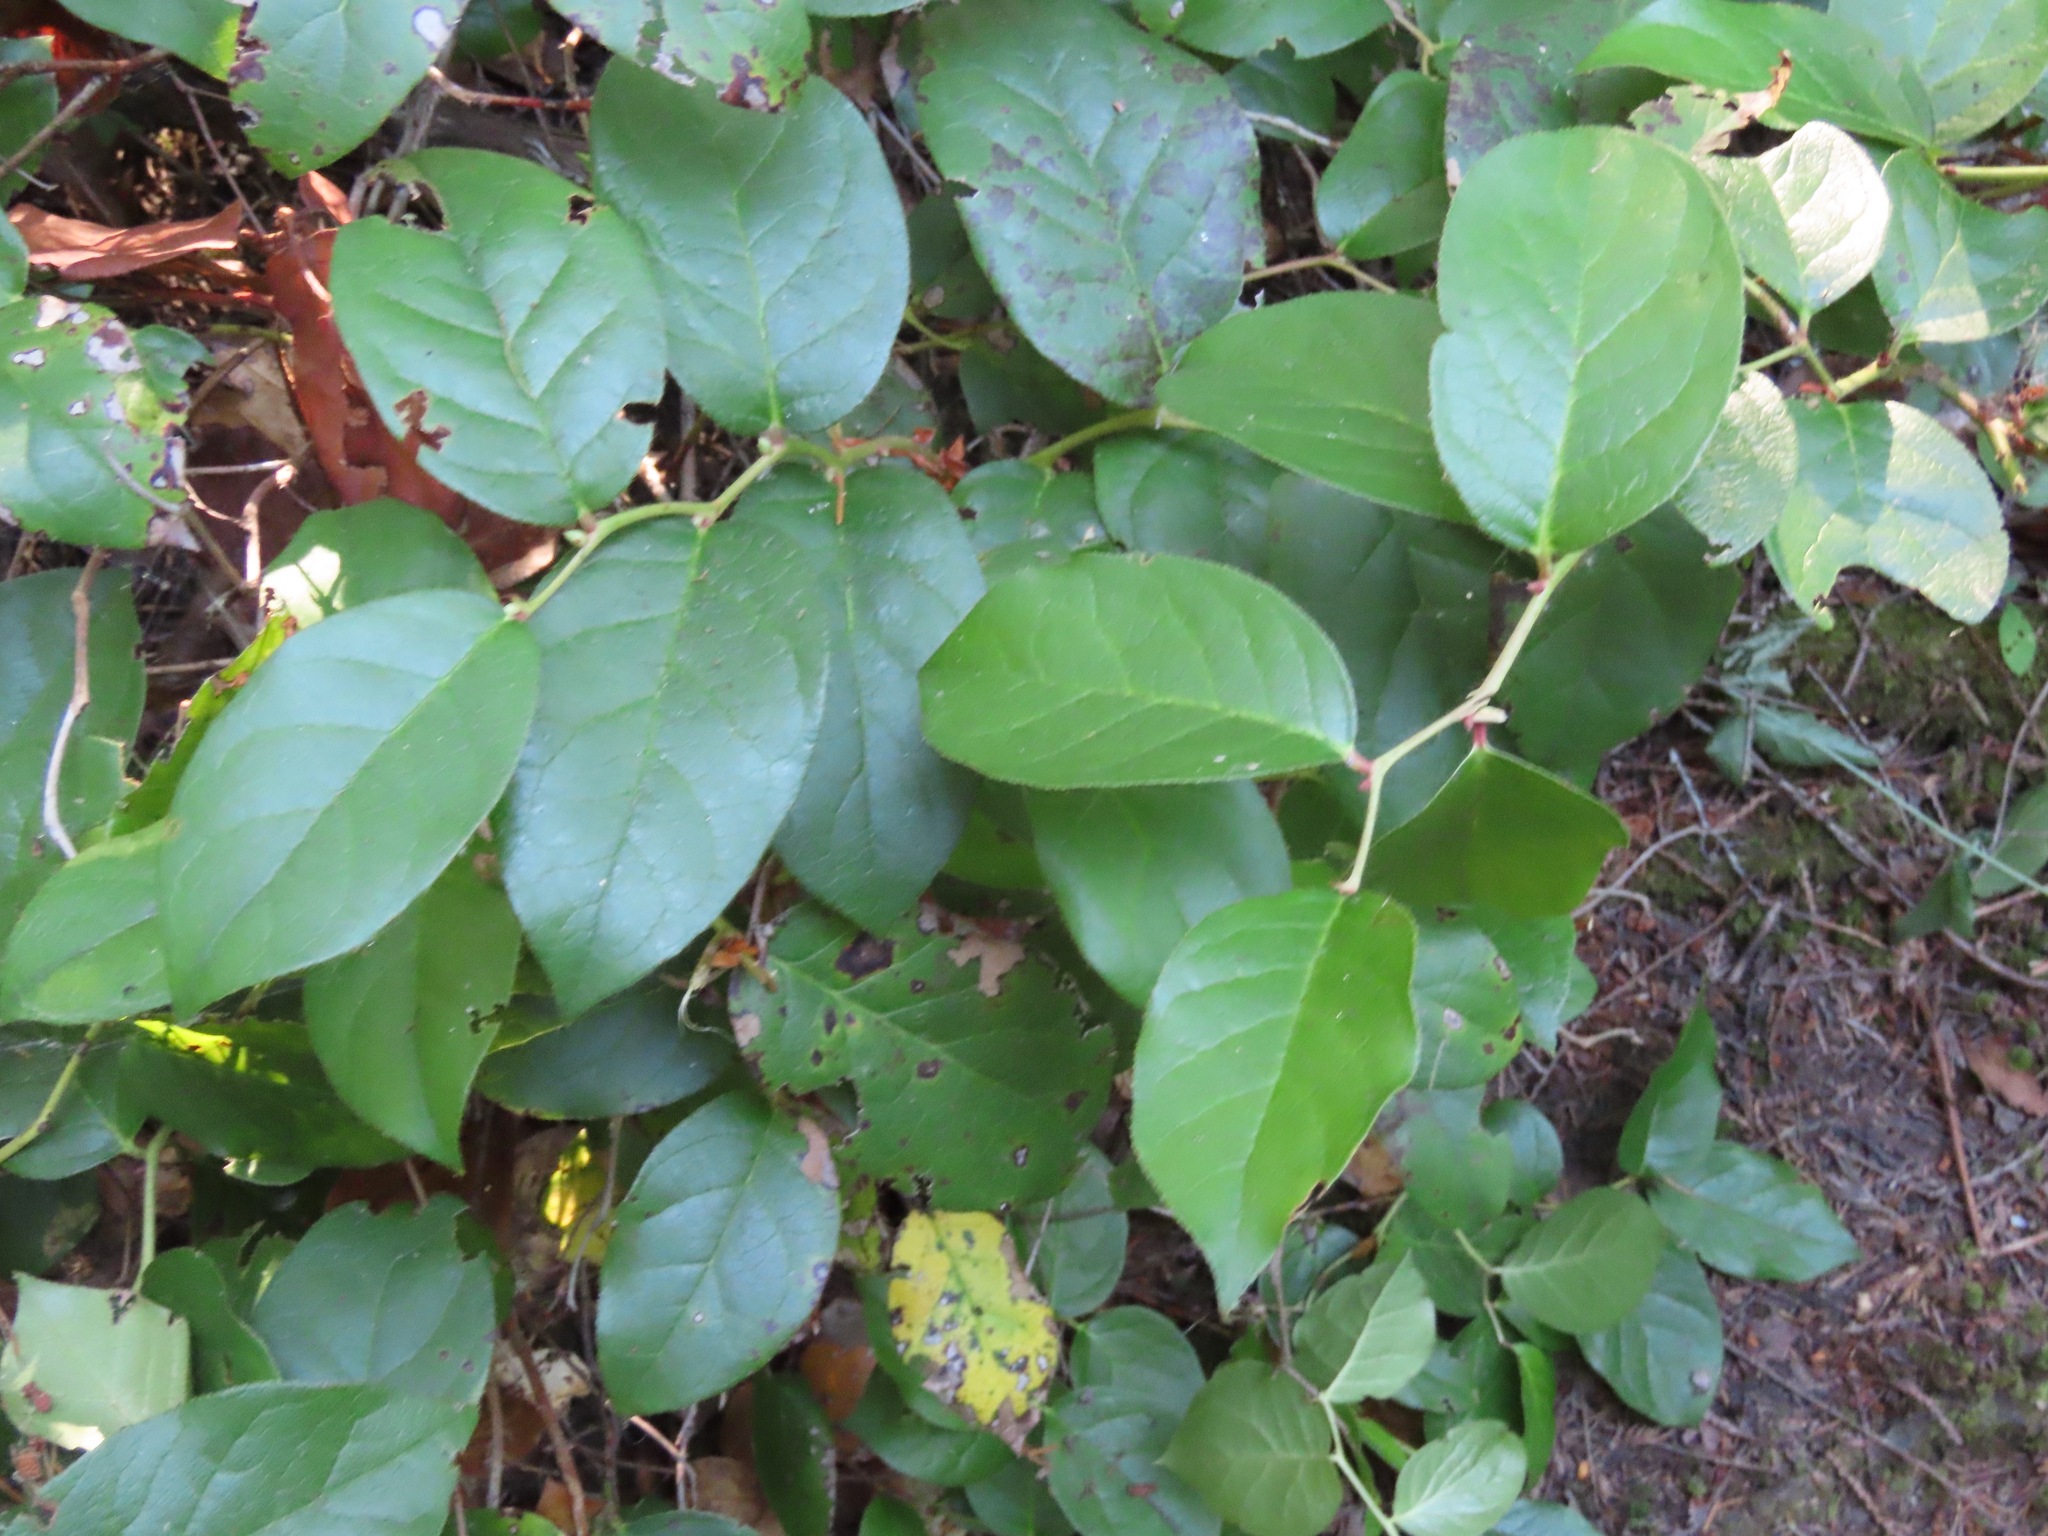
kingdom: Plantae
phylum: Tracheophyta
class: Magnoliopsida
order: Ericales
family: Ericaceae
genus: Gaultheria
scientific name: Gaultheria shallon
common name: Shallon
